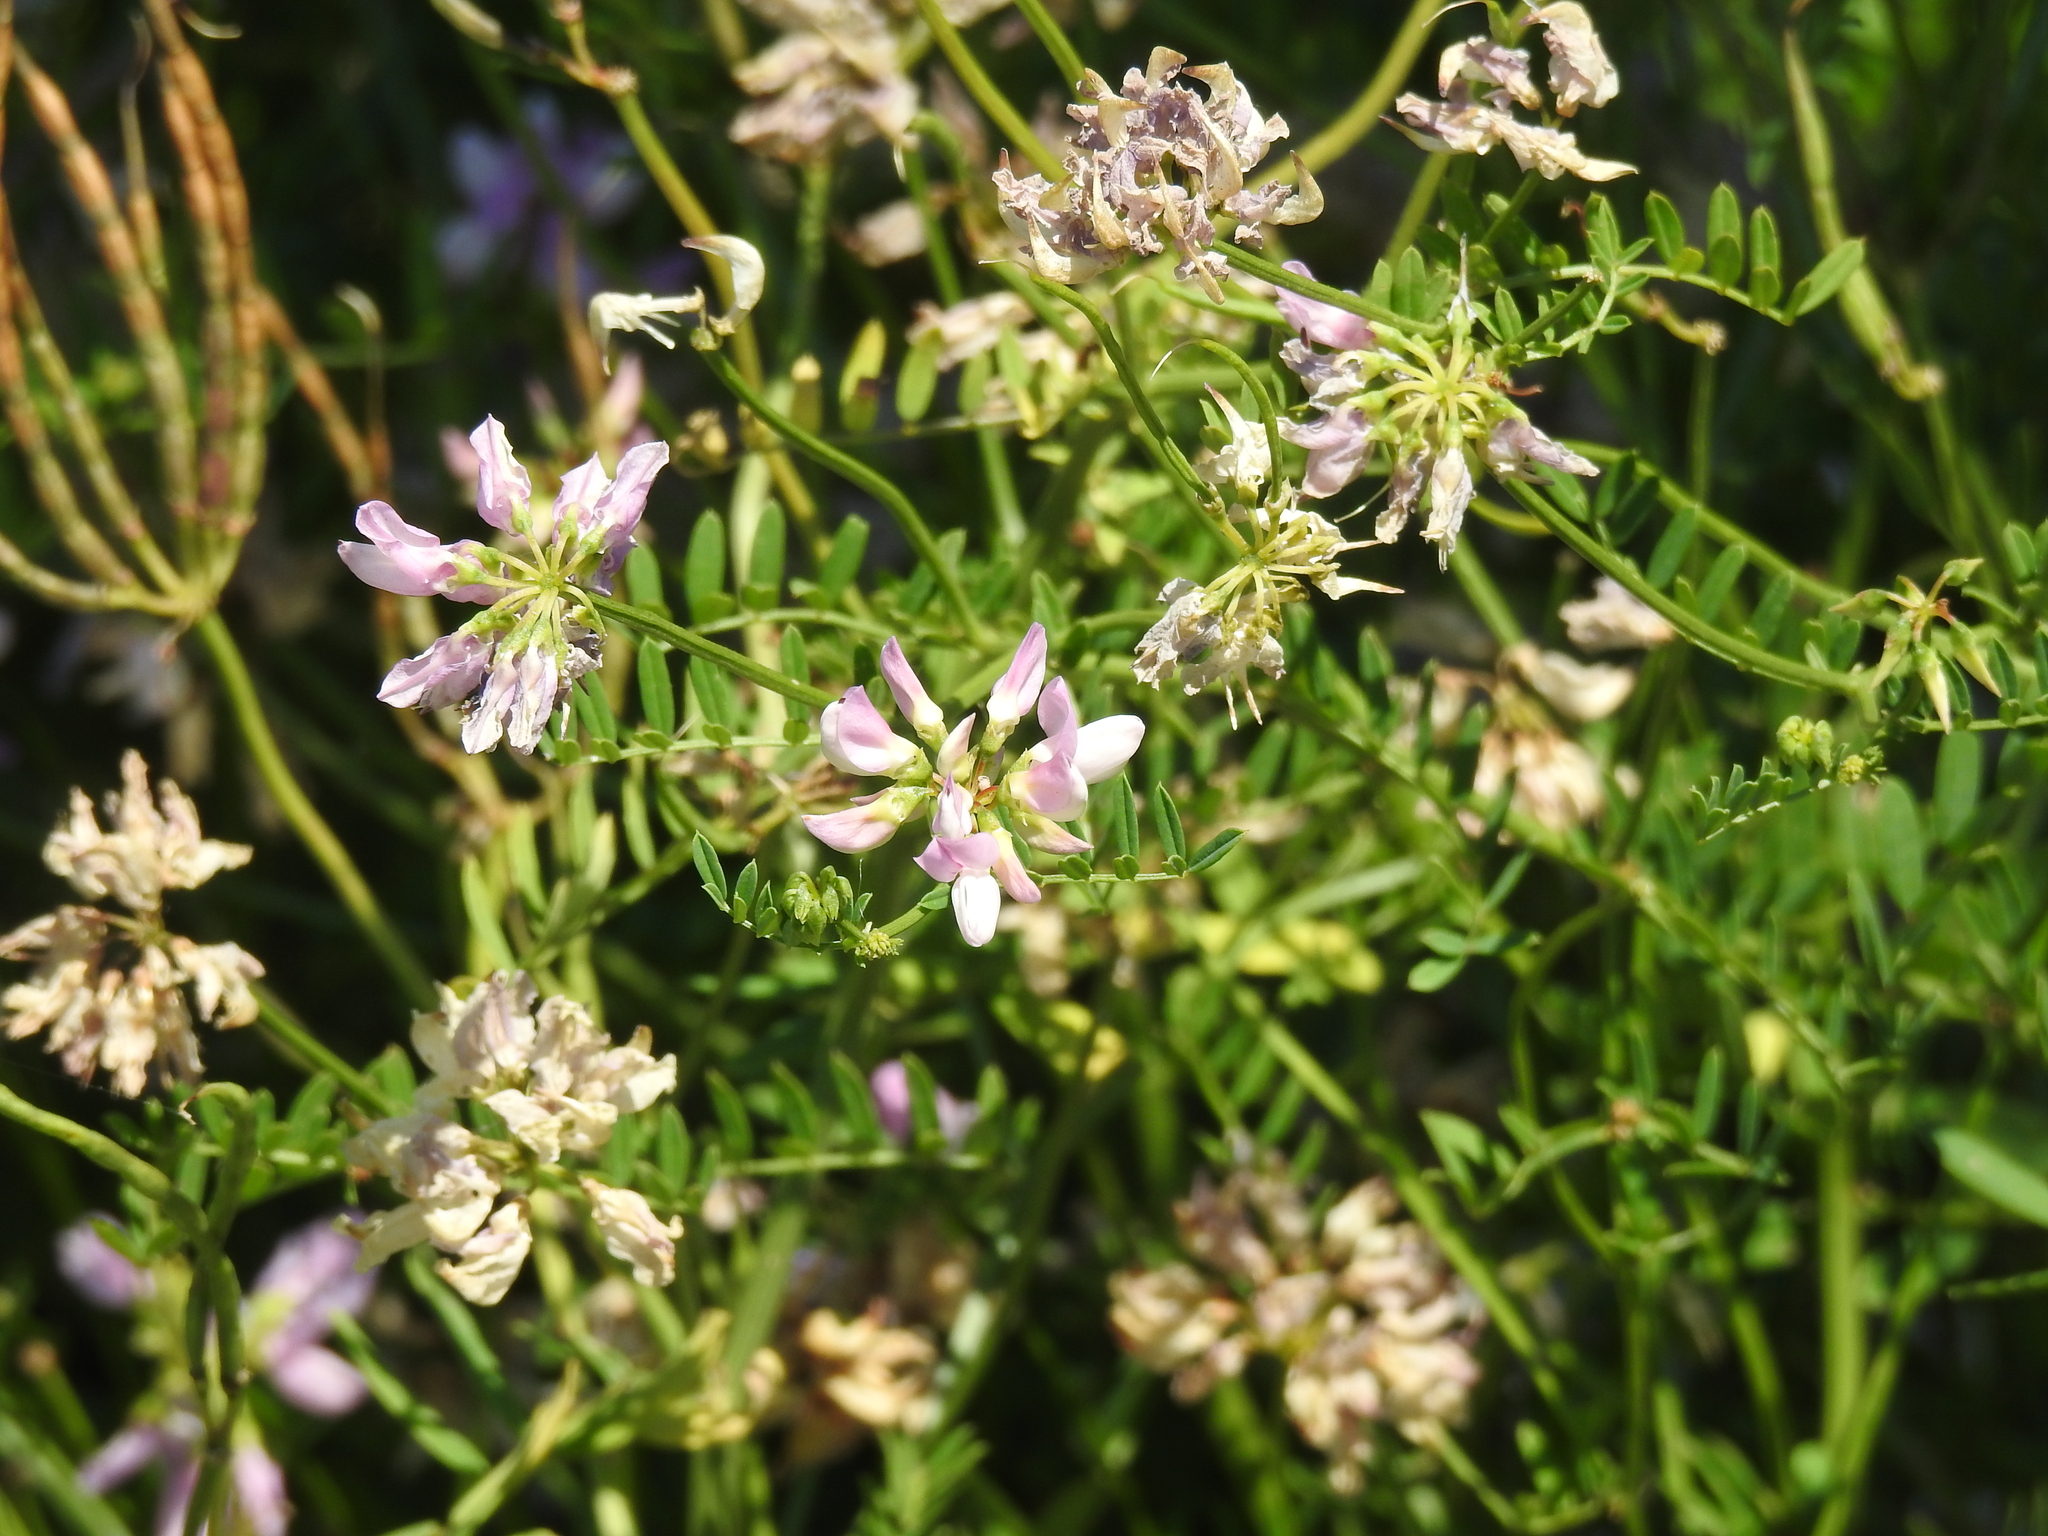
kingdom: Plantae
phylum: Tracheophyta
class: Magnoliopsida
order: Fabales
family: Fabaceae
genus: Coronilla
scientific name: Coronilla varia
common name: Crownvetch
